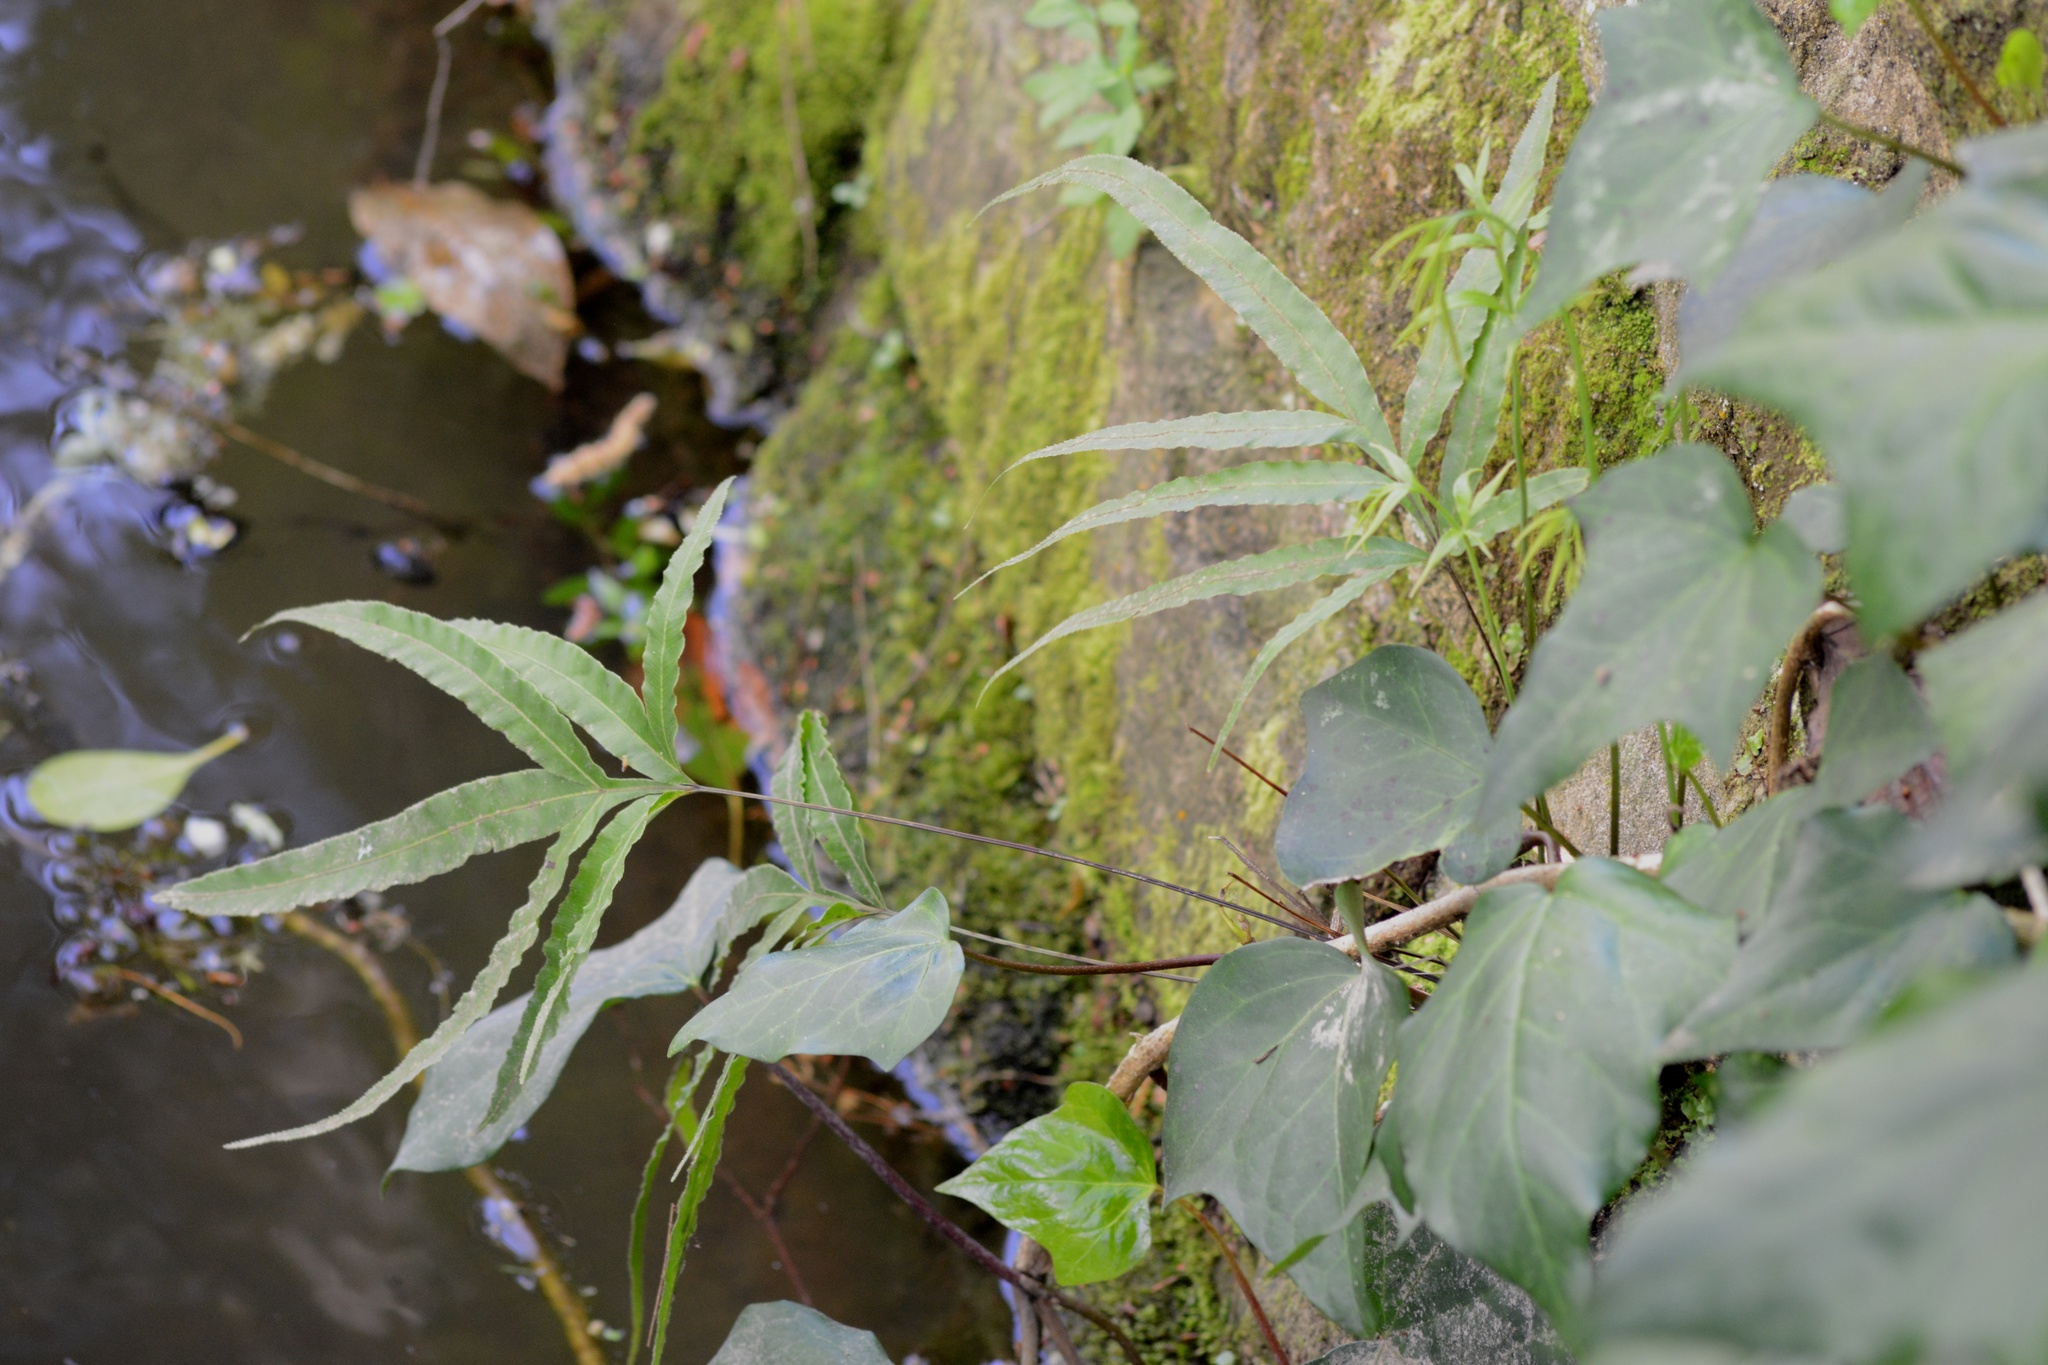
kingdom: Plantae
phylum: Tracheophyta
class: Polypodiopsida
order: Polypodiales
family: Pteridaceae
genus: Pteris
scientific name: Pteris cretica
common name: Ribbon fern
